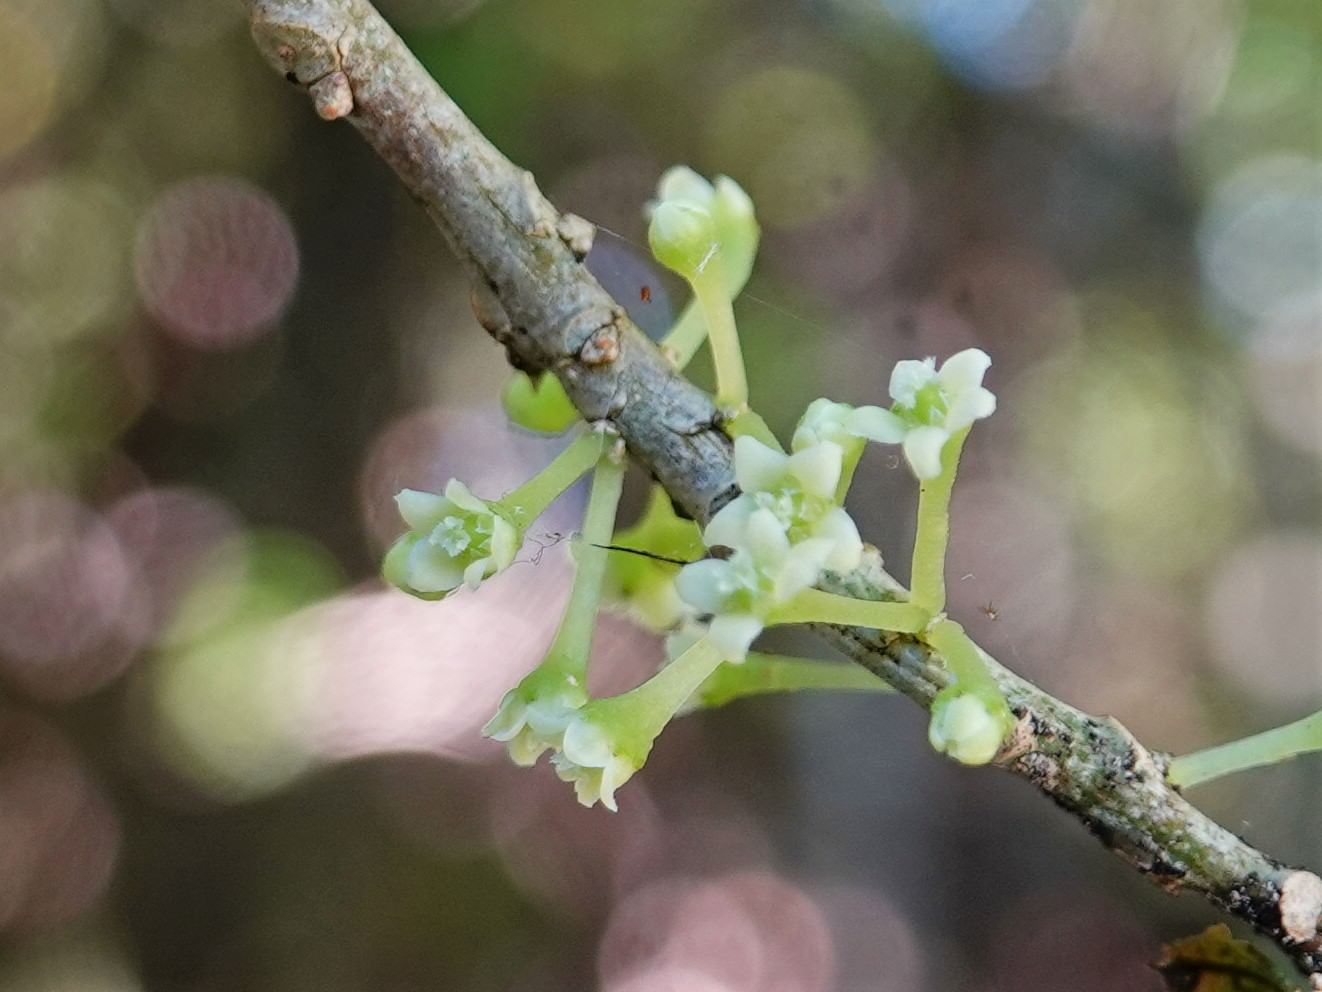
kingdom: Plantae
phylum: Tracheophyta
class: Magnoliopsida
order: Malpighiales
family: Violaceae
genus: Melicytus
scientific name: Melicytus ramiflorus
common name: Mahoe
